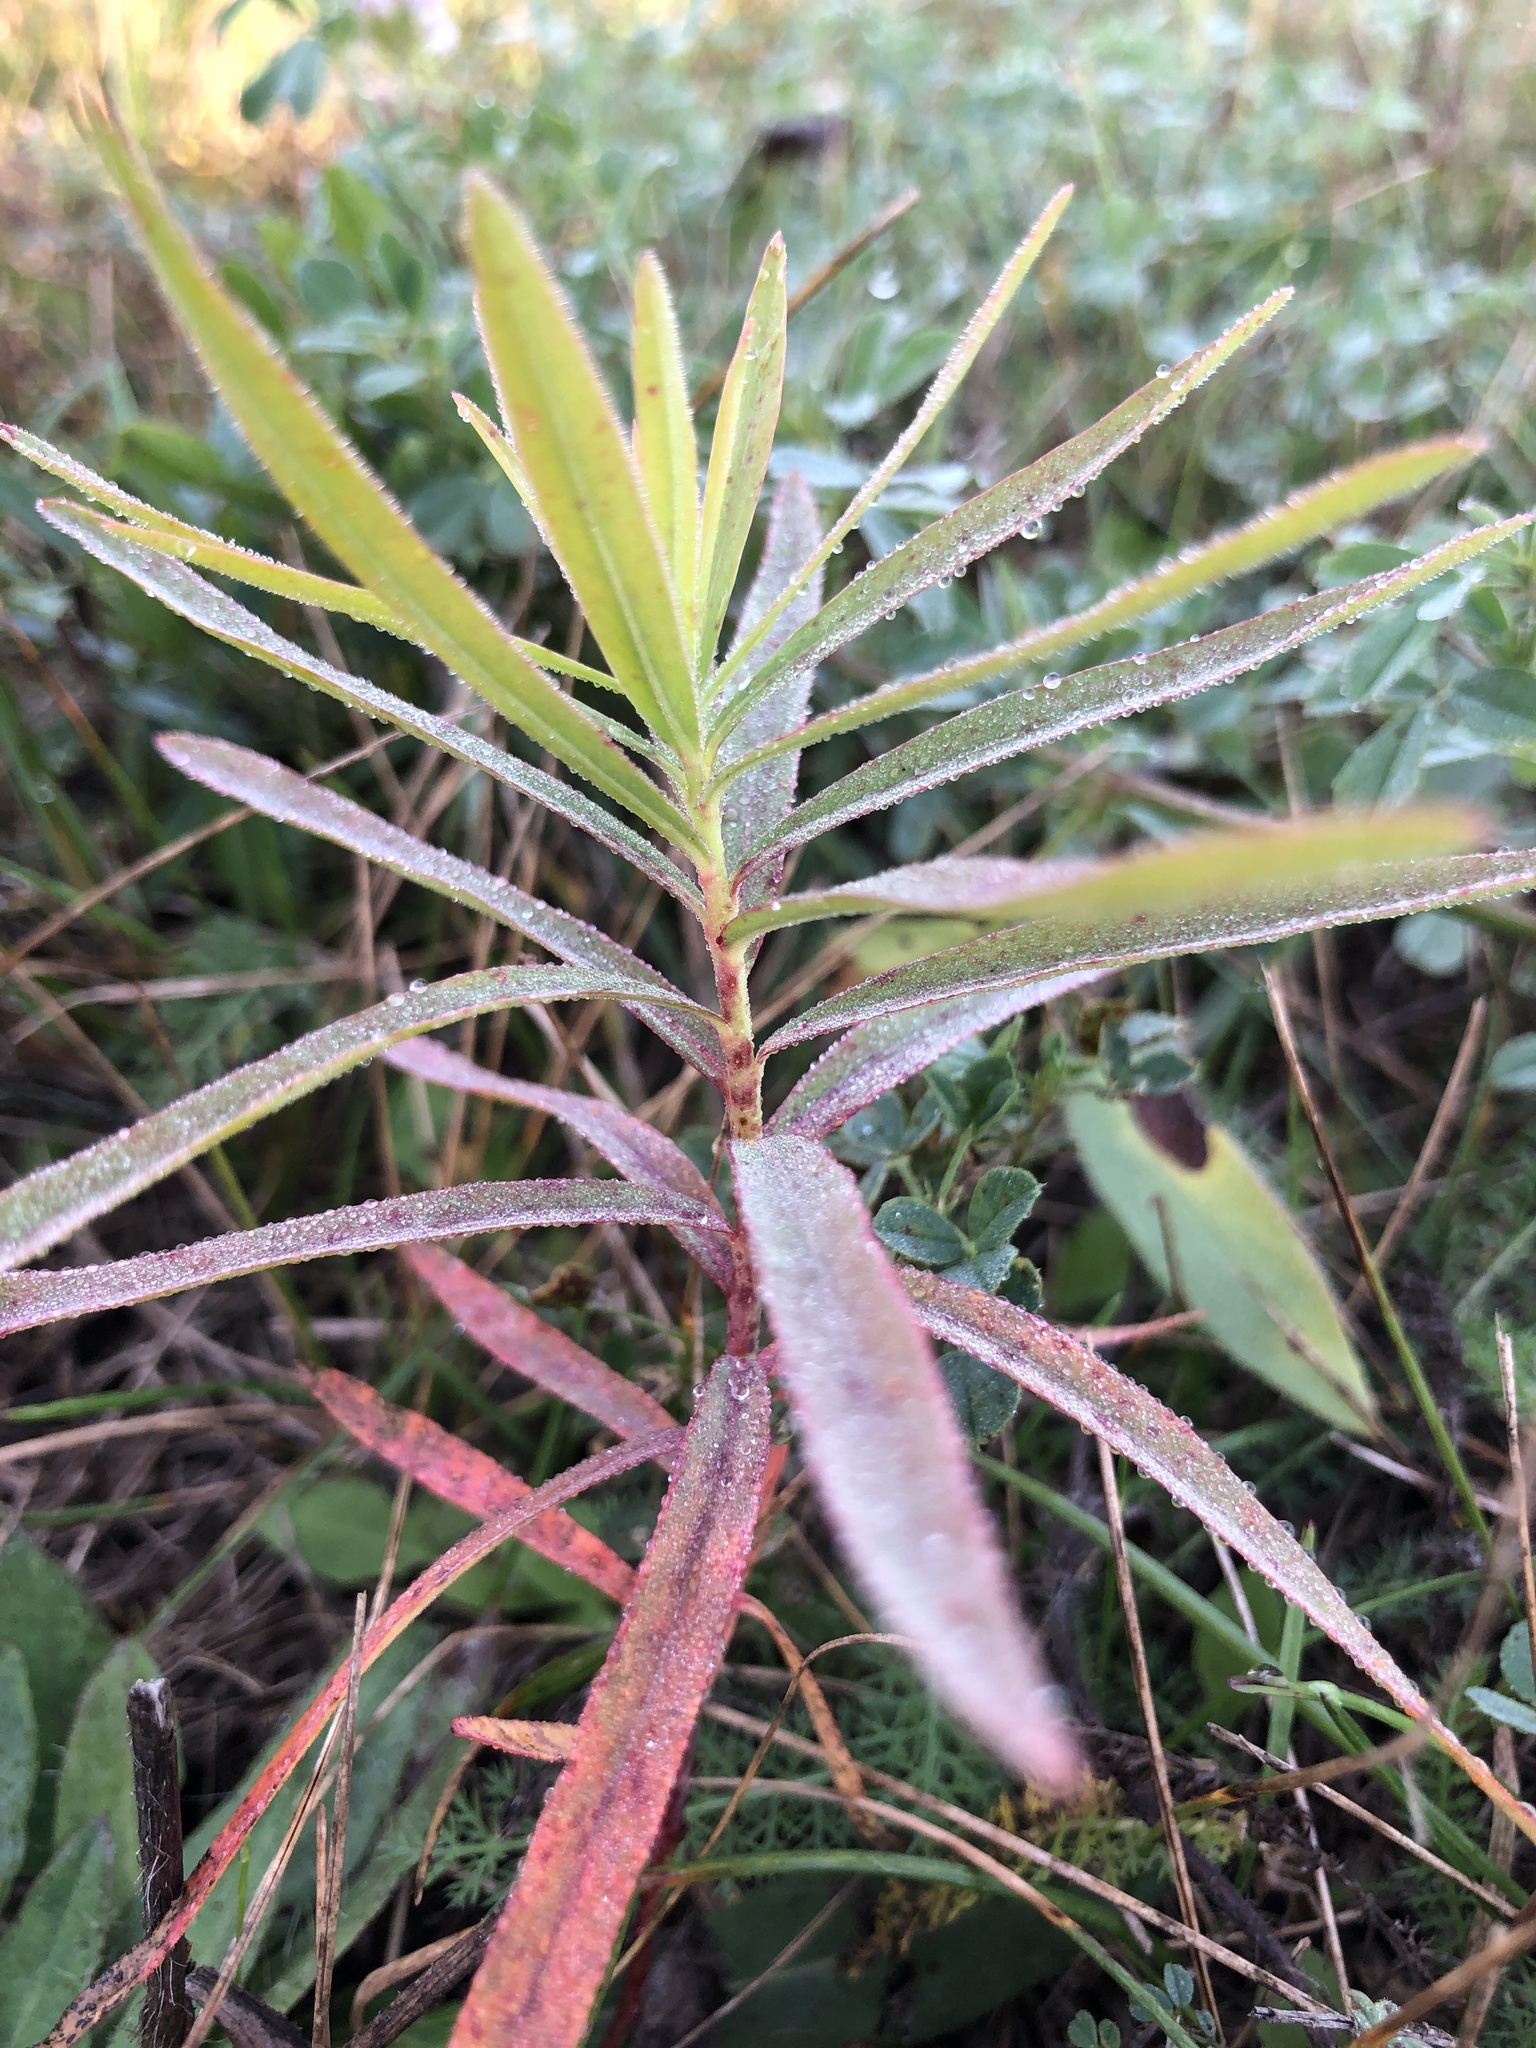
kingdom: Plantae
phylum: Tracheophyta
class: Magnoliopsida
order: Myrtales
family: Onagraceae
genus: Chamaenerion
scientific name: Chamaenerion angustifolium
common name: Fireweed
